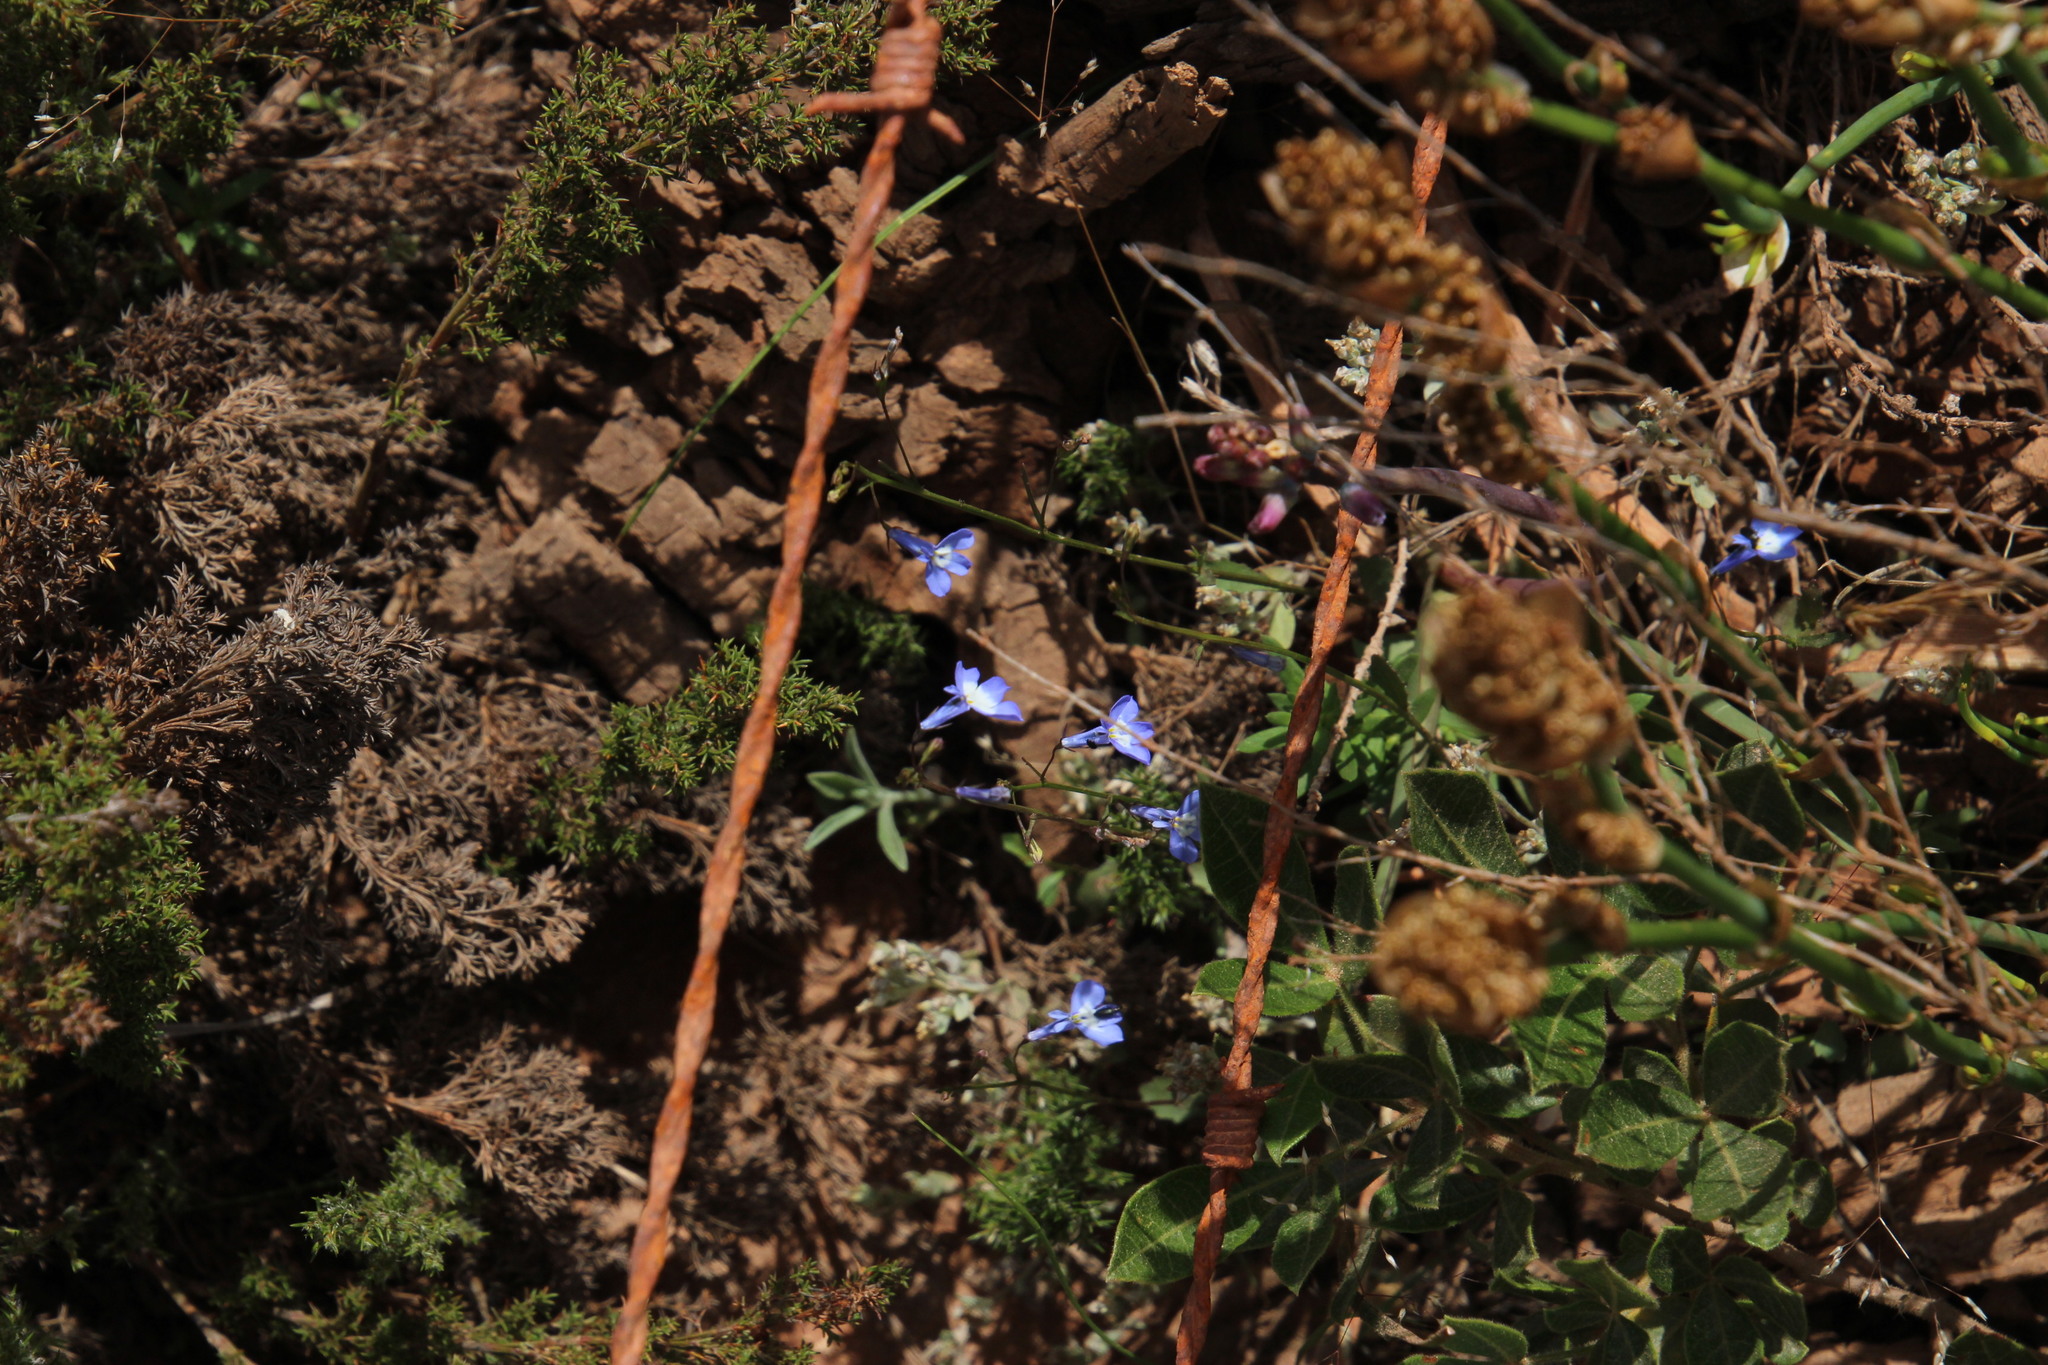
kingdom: Plantae
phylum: Tracheophyta
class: Magnoliopsida
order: Asterales
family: Campanulaceae
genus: Lobelia
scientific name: Lobelia erinus
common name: Edging lobelia
